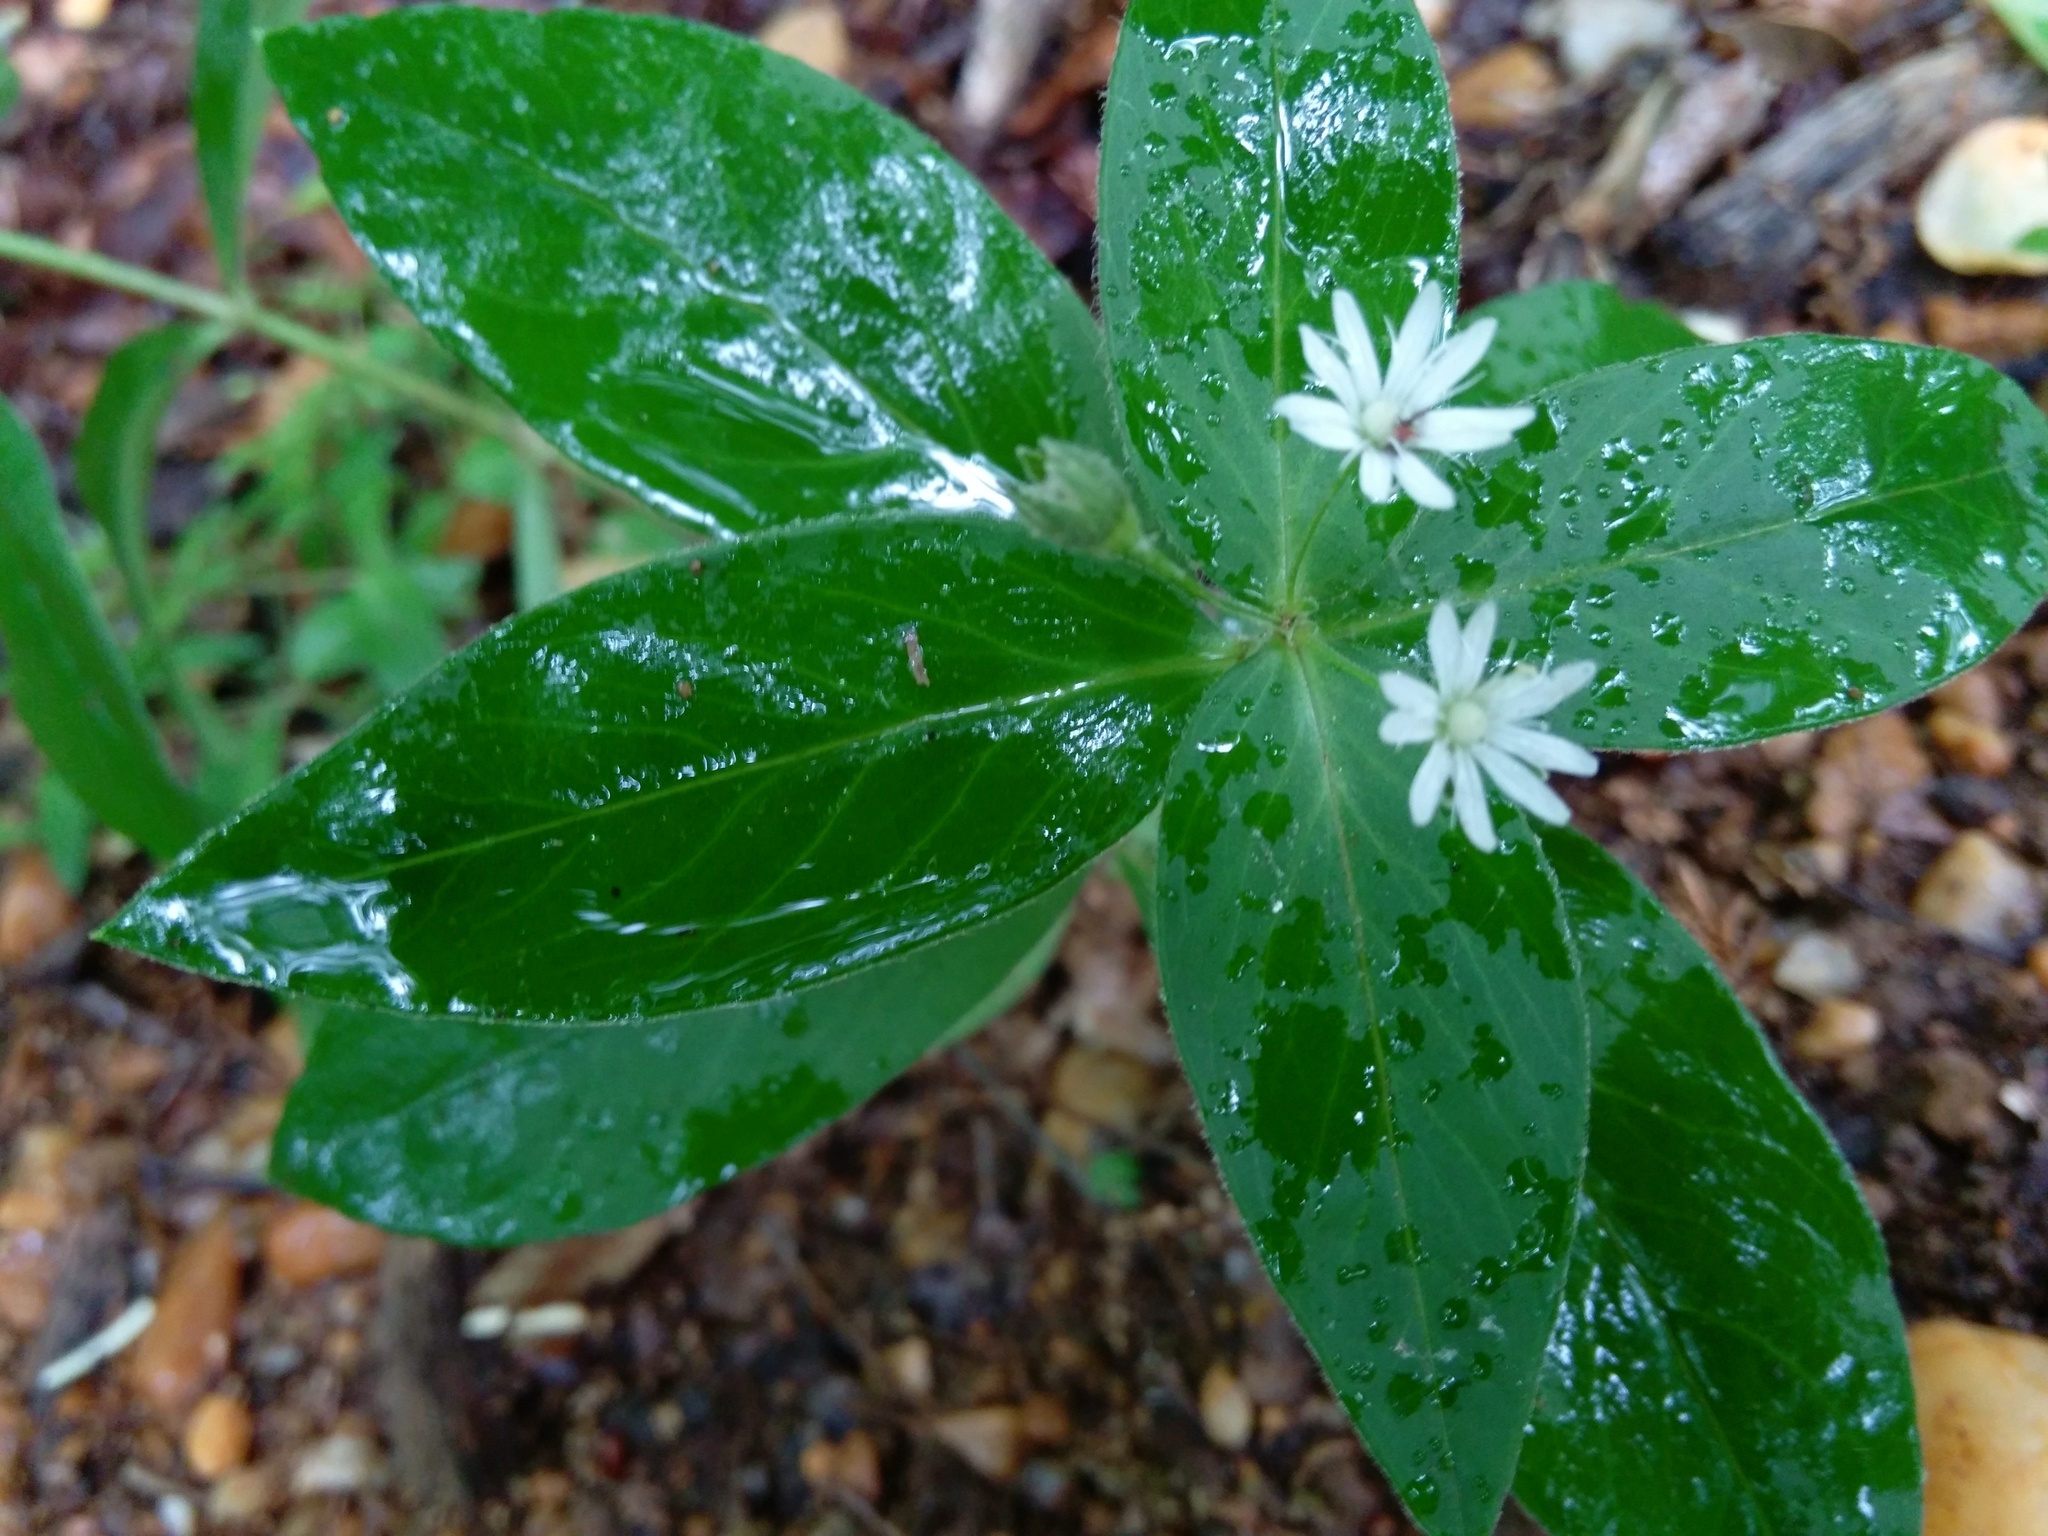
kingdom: Plantae
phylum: Tracheophyta
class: Magnoliopsida
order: Caryophyllales
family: Caryophyllaceae
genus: Stellaria
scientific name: Stellaria pubera
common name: Star chickweed
